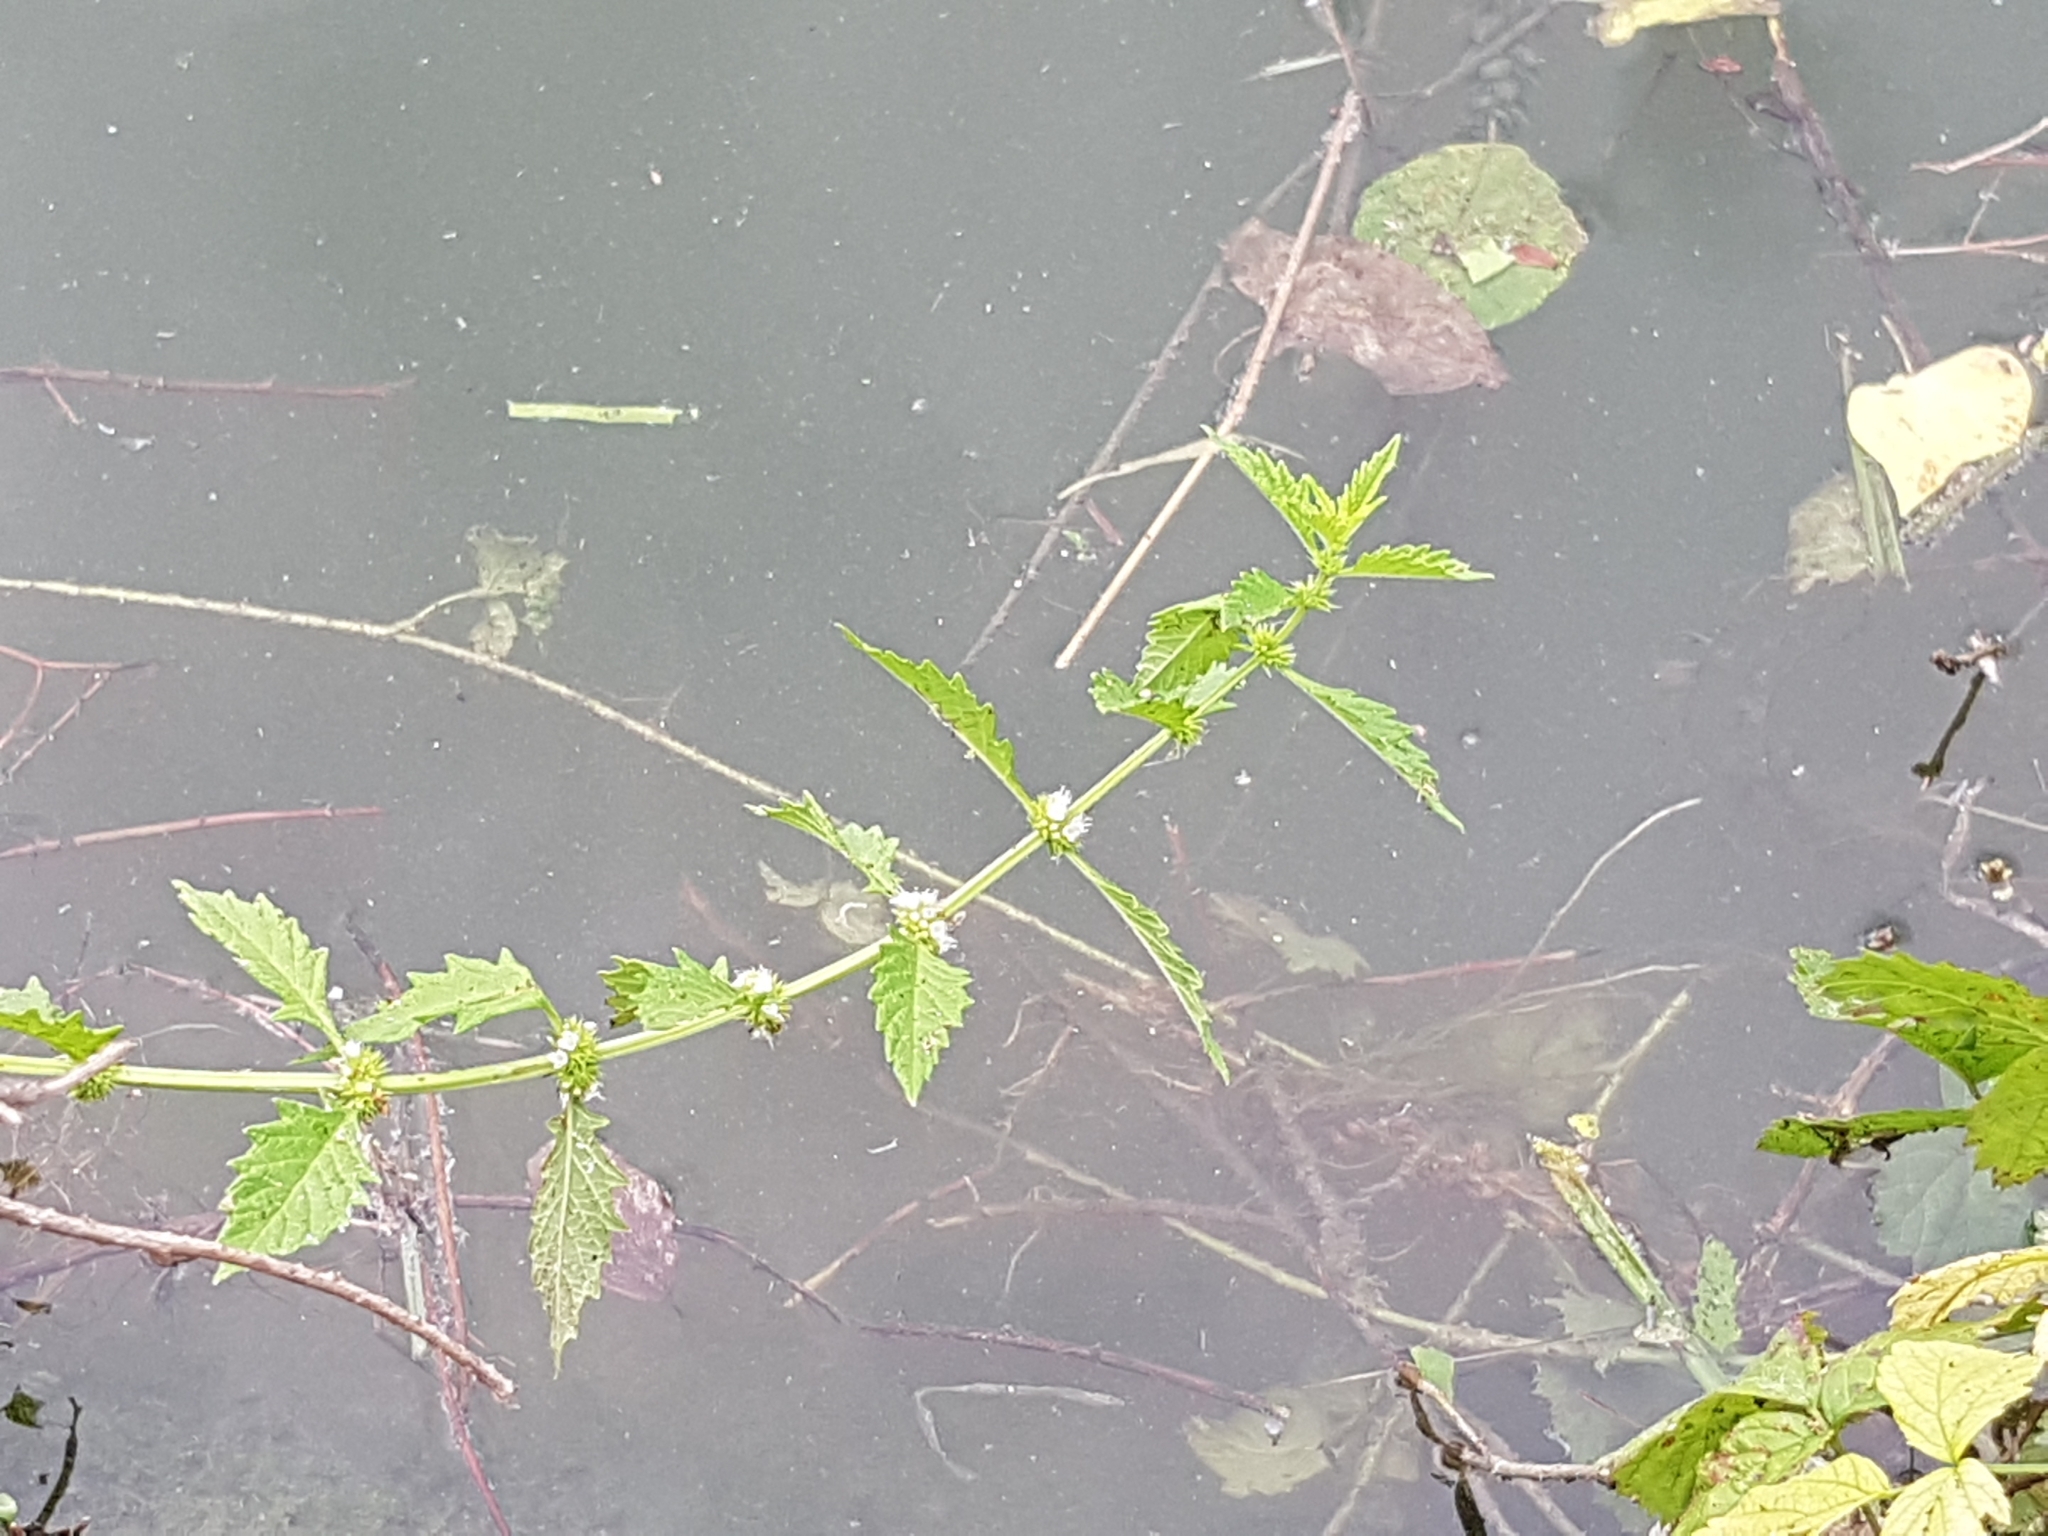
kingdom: Plantae
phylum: Tracheophyta
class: Magnoliopsida
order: Lamiales
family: Lamiaceae
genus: Lycopus
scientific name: Lycopus europaeus
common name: European bugleweed
